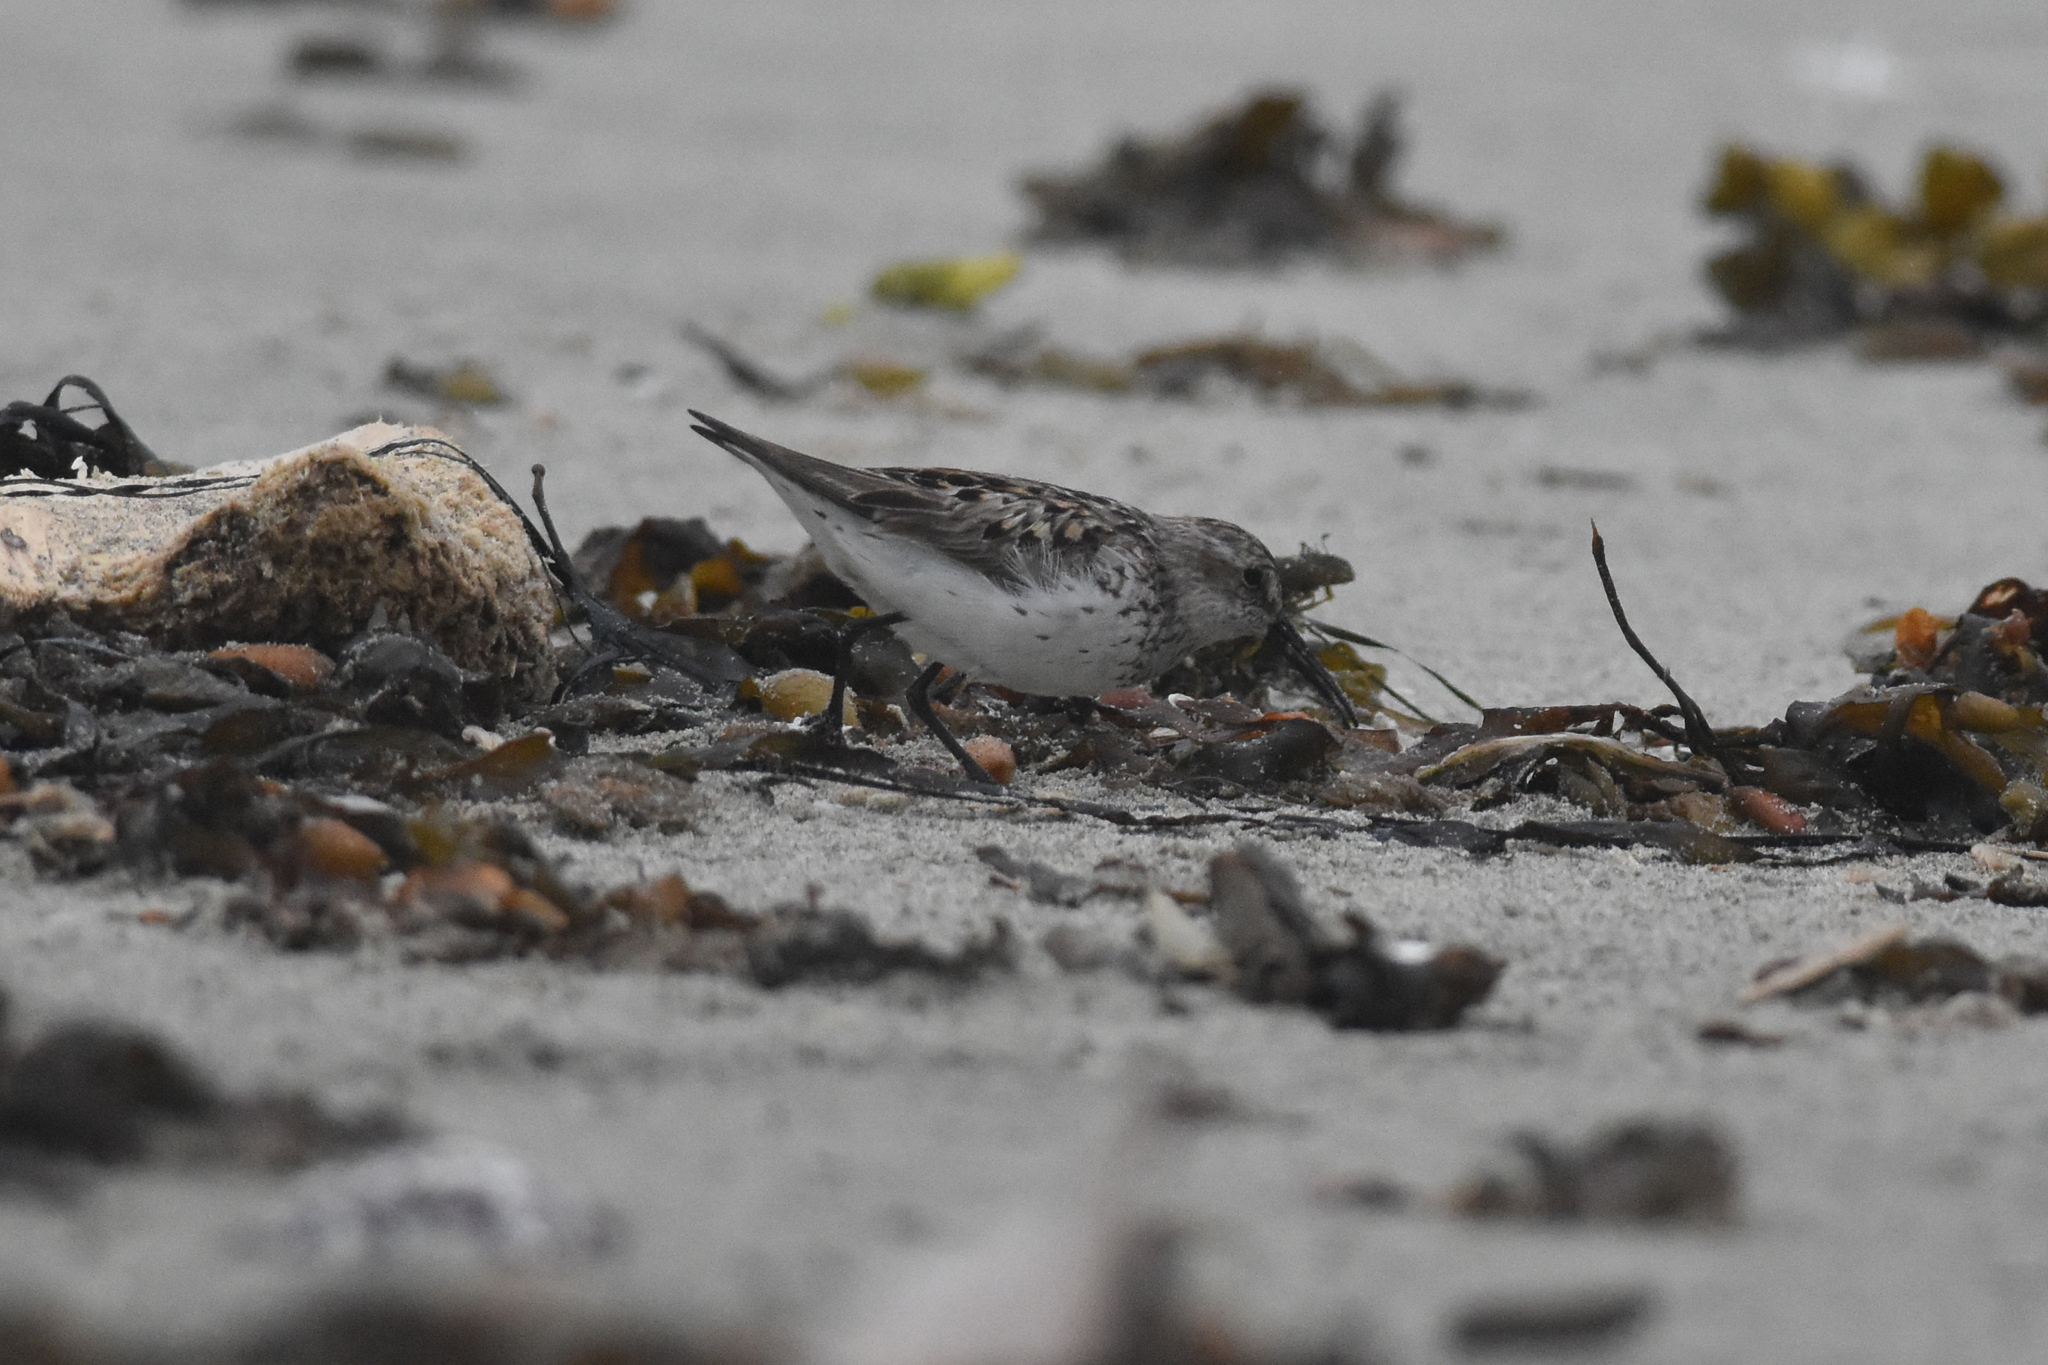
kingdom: Animalia
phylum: Chordata
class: Aves
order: Charadriiformes
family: Scolopacidae
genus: Calidris
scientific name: Calidris mauri
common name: Western sandpiper
